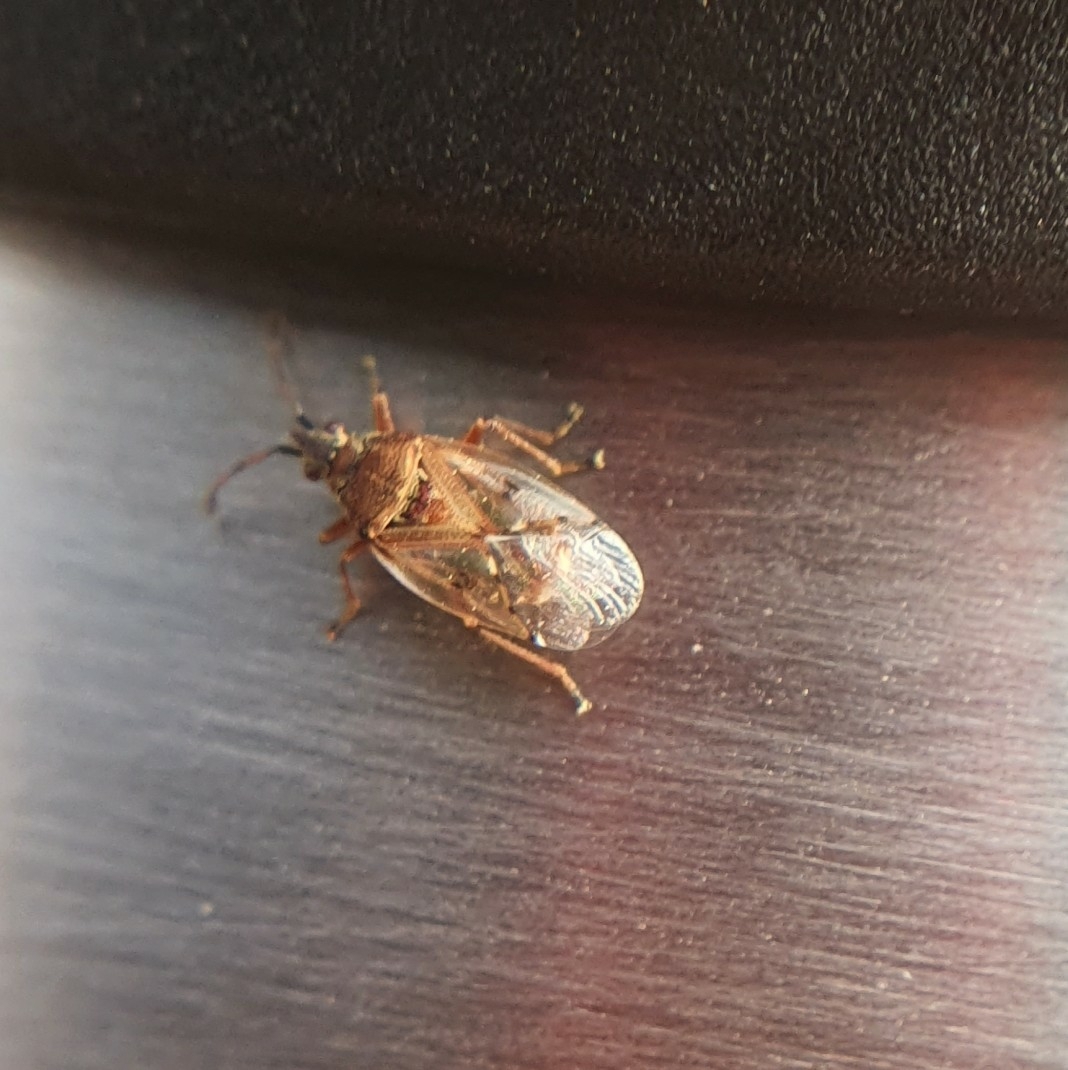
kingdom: Animalia
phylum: Arthropoda
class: Insecta
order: Hemiptera
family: Lygaeidae
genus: Kleidocerys
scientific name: Kleidocerys resedae
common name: Birch catkin bug
